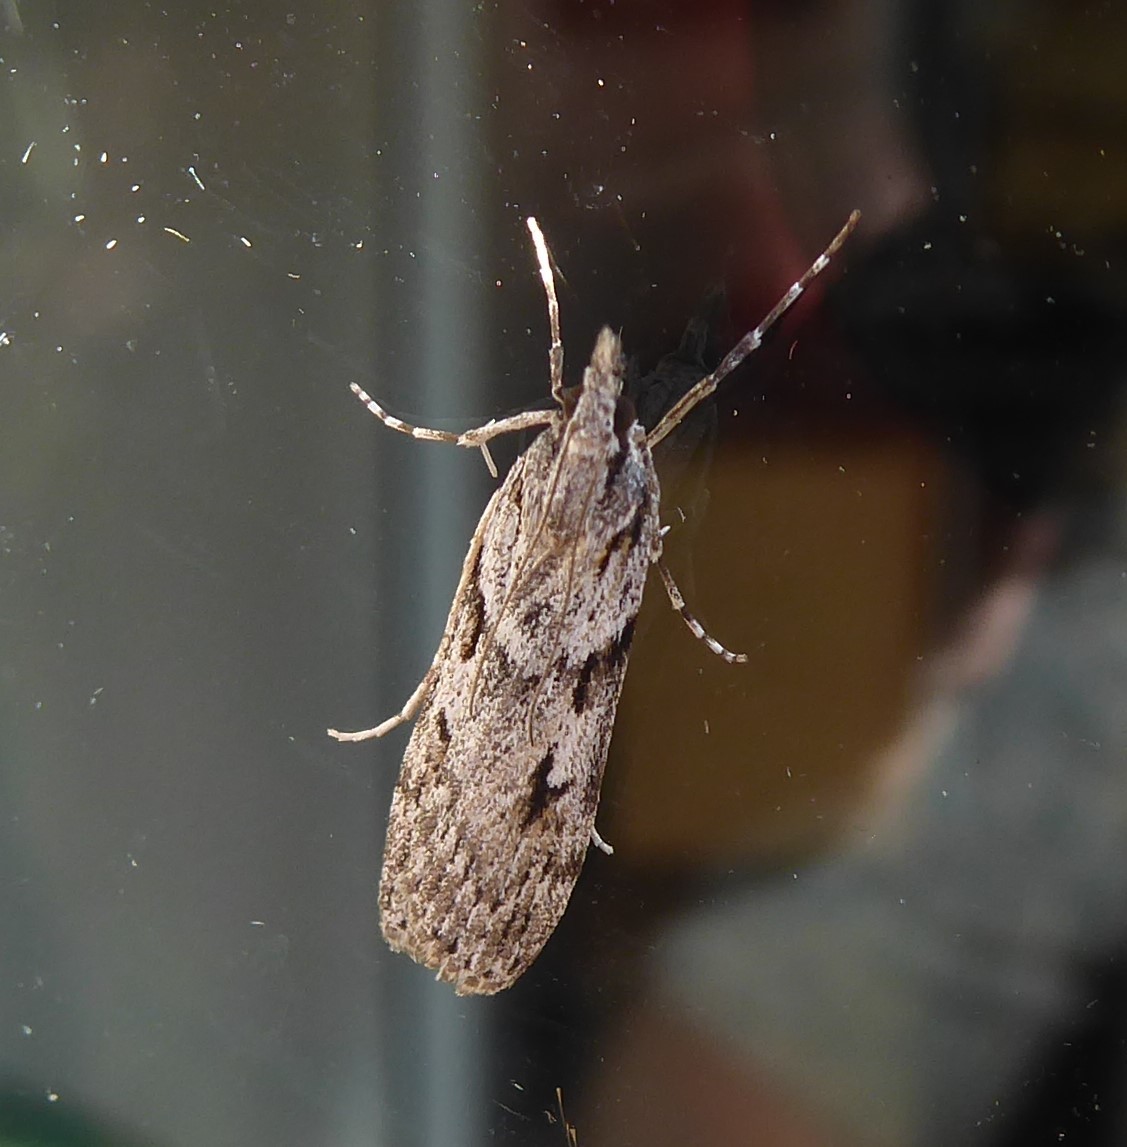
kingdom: Animalia
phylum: Arthropoda
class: Insecta
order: Lepidoptera
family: Crambidae
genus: Scoparia
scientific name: Scoparia halopis
